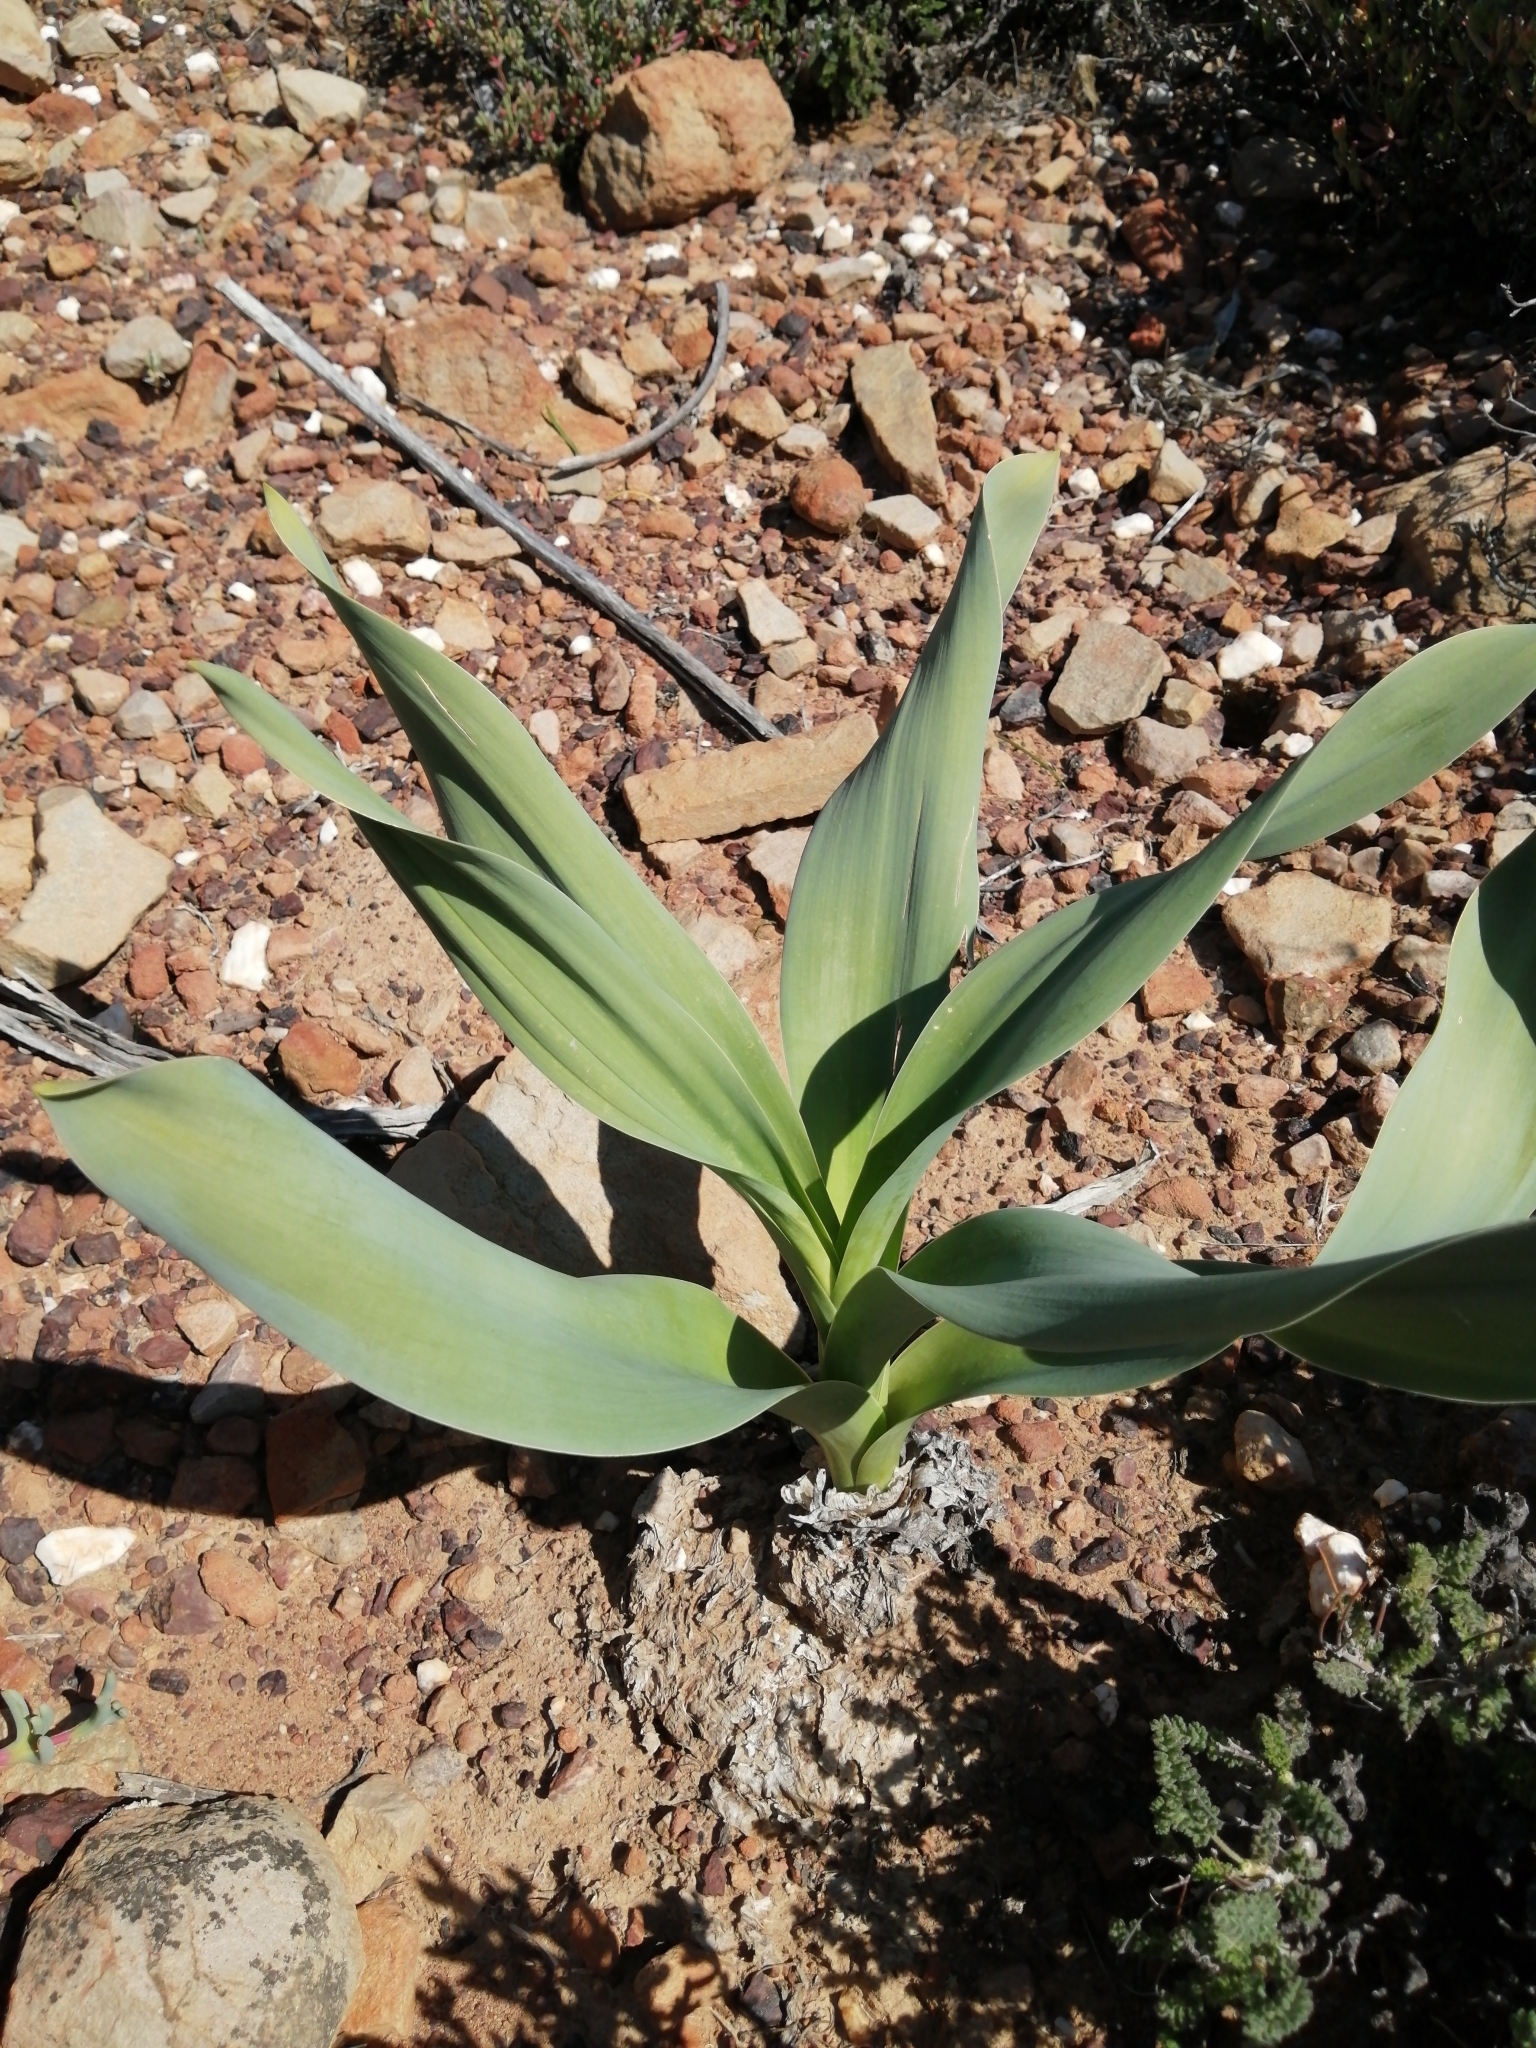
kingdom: Plantae
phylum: Tracheophyta
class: Liliopsida
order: Asparagales
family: Asparagaceae
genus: Drimia
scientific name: Drimia capensis
